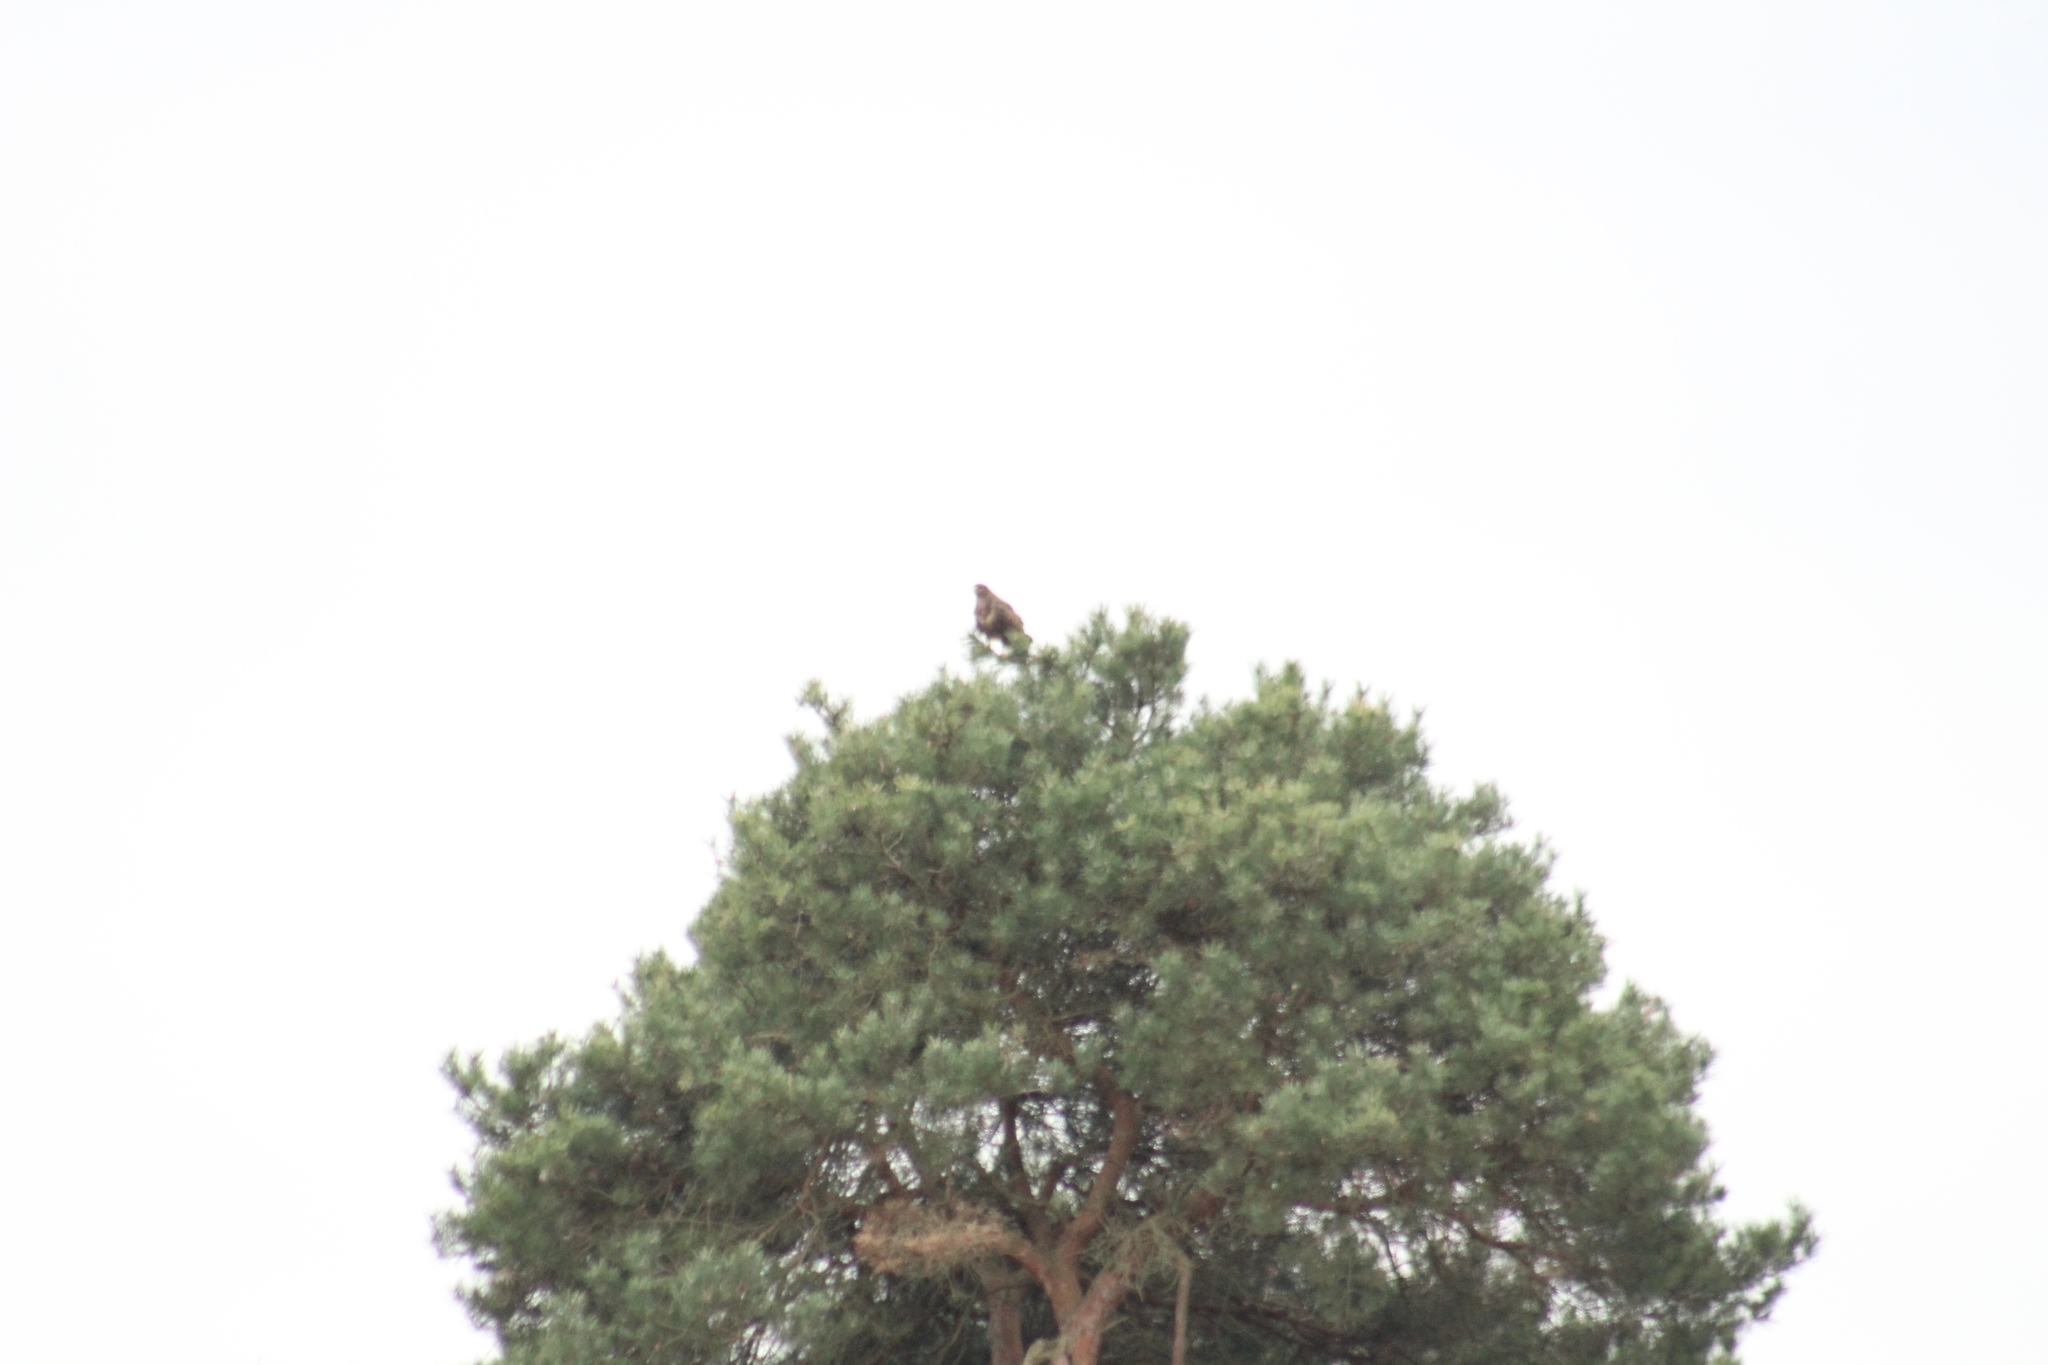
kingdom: Animalia
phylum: Chordata
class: Aves
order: Accipitriformes
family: Accipitridae
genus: Buteo
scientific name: Buteo buteo
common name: Common buzzard
